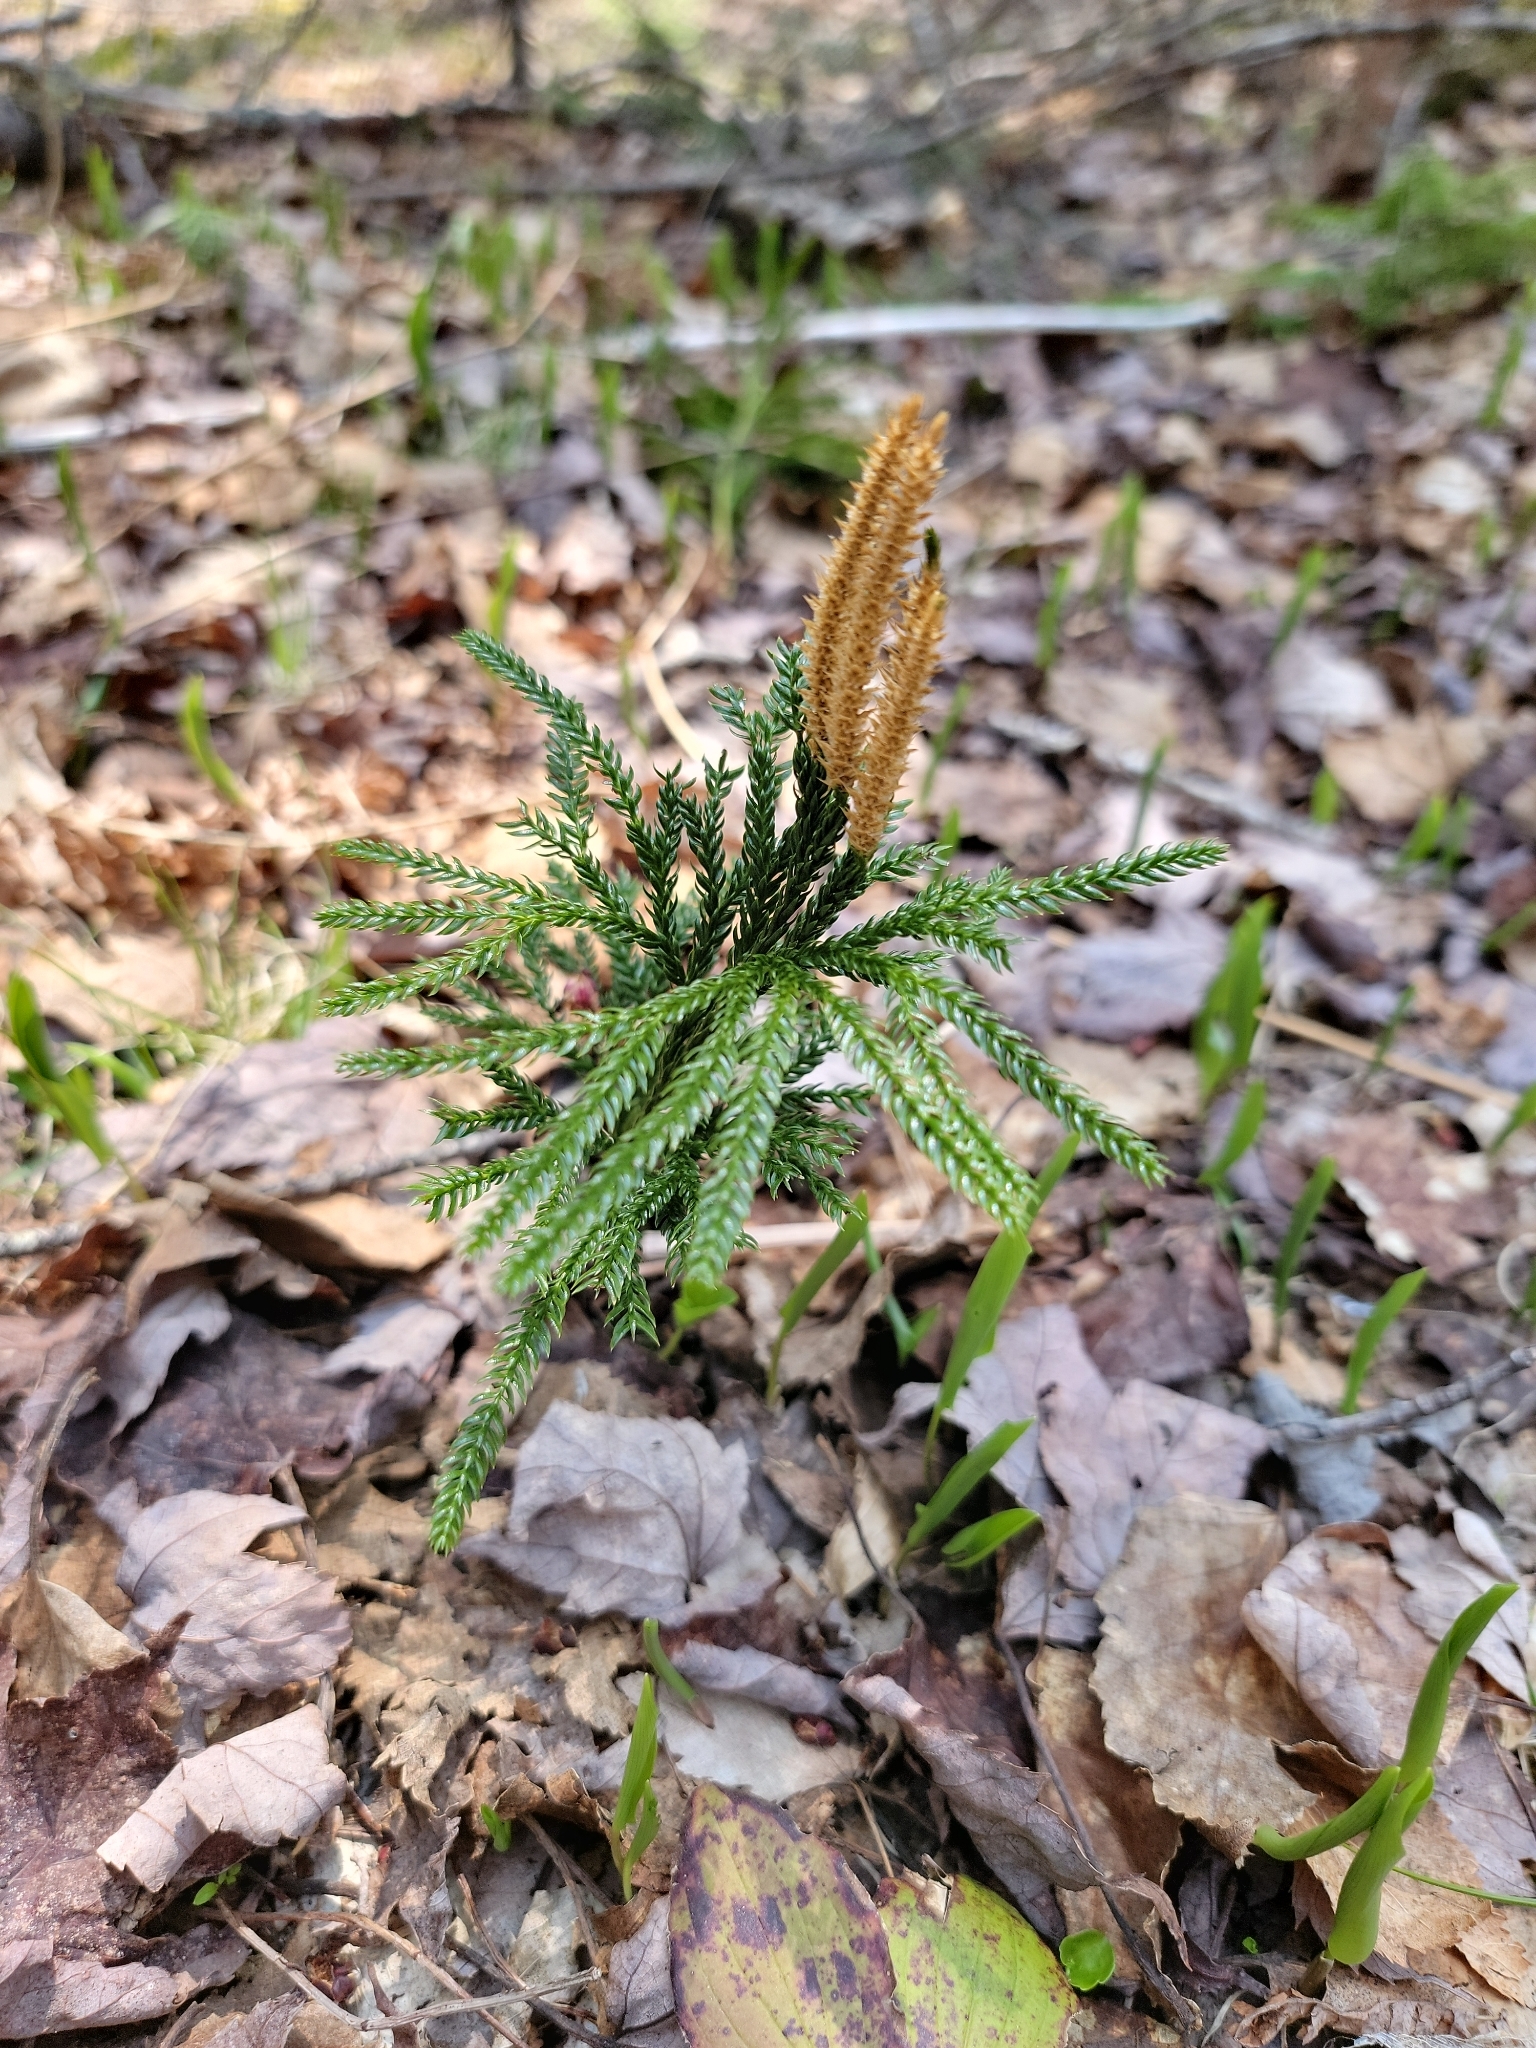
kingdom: Plantae
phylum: Tracheophyta
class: Lycopodiopsida
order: Lycopodiales
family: Lycopodiaceae
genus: Dendrolycopodium
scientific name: Dendrolycopodium obscurum
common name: Common ground-pine
